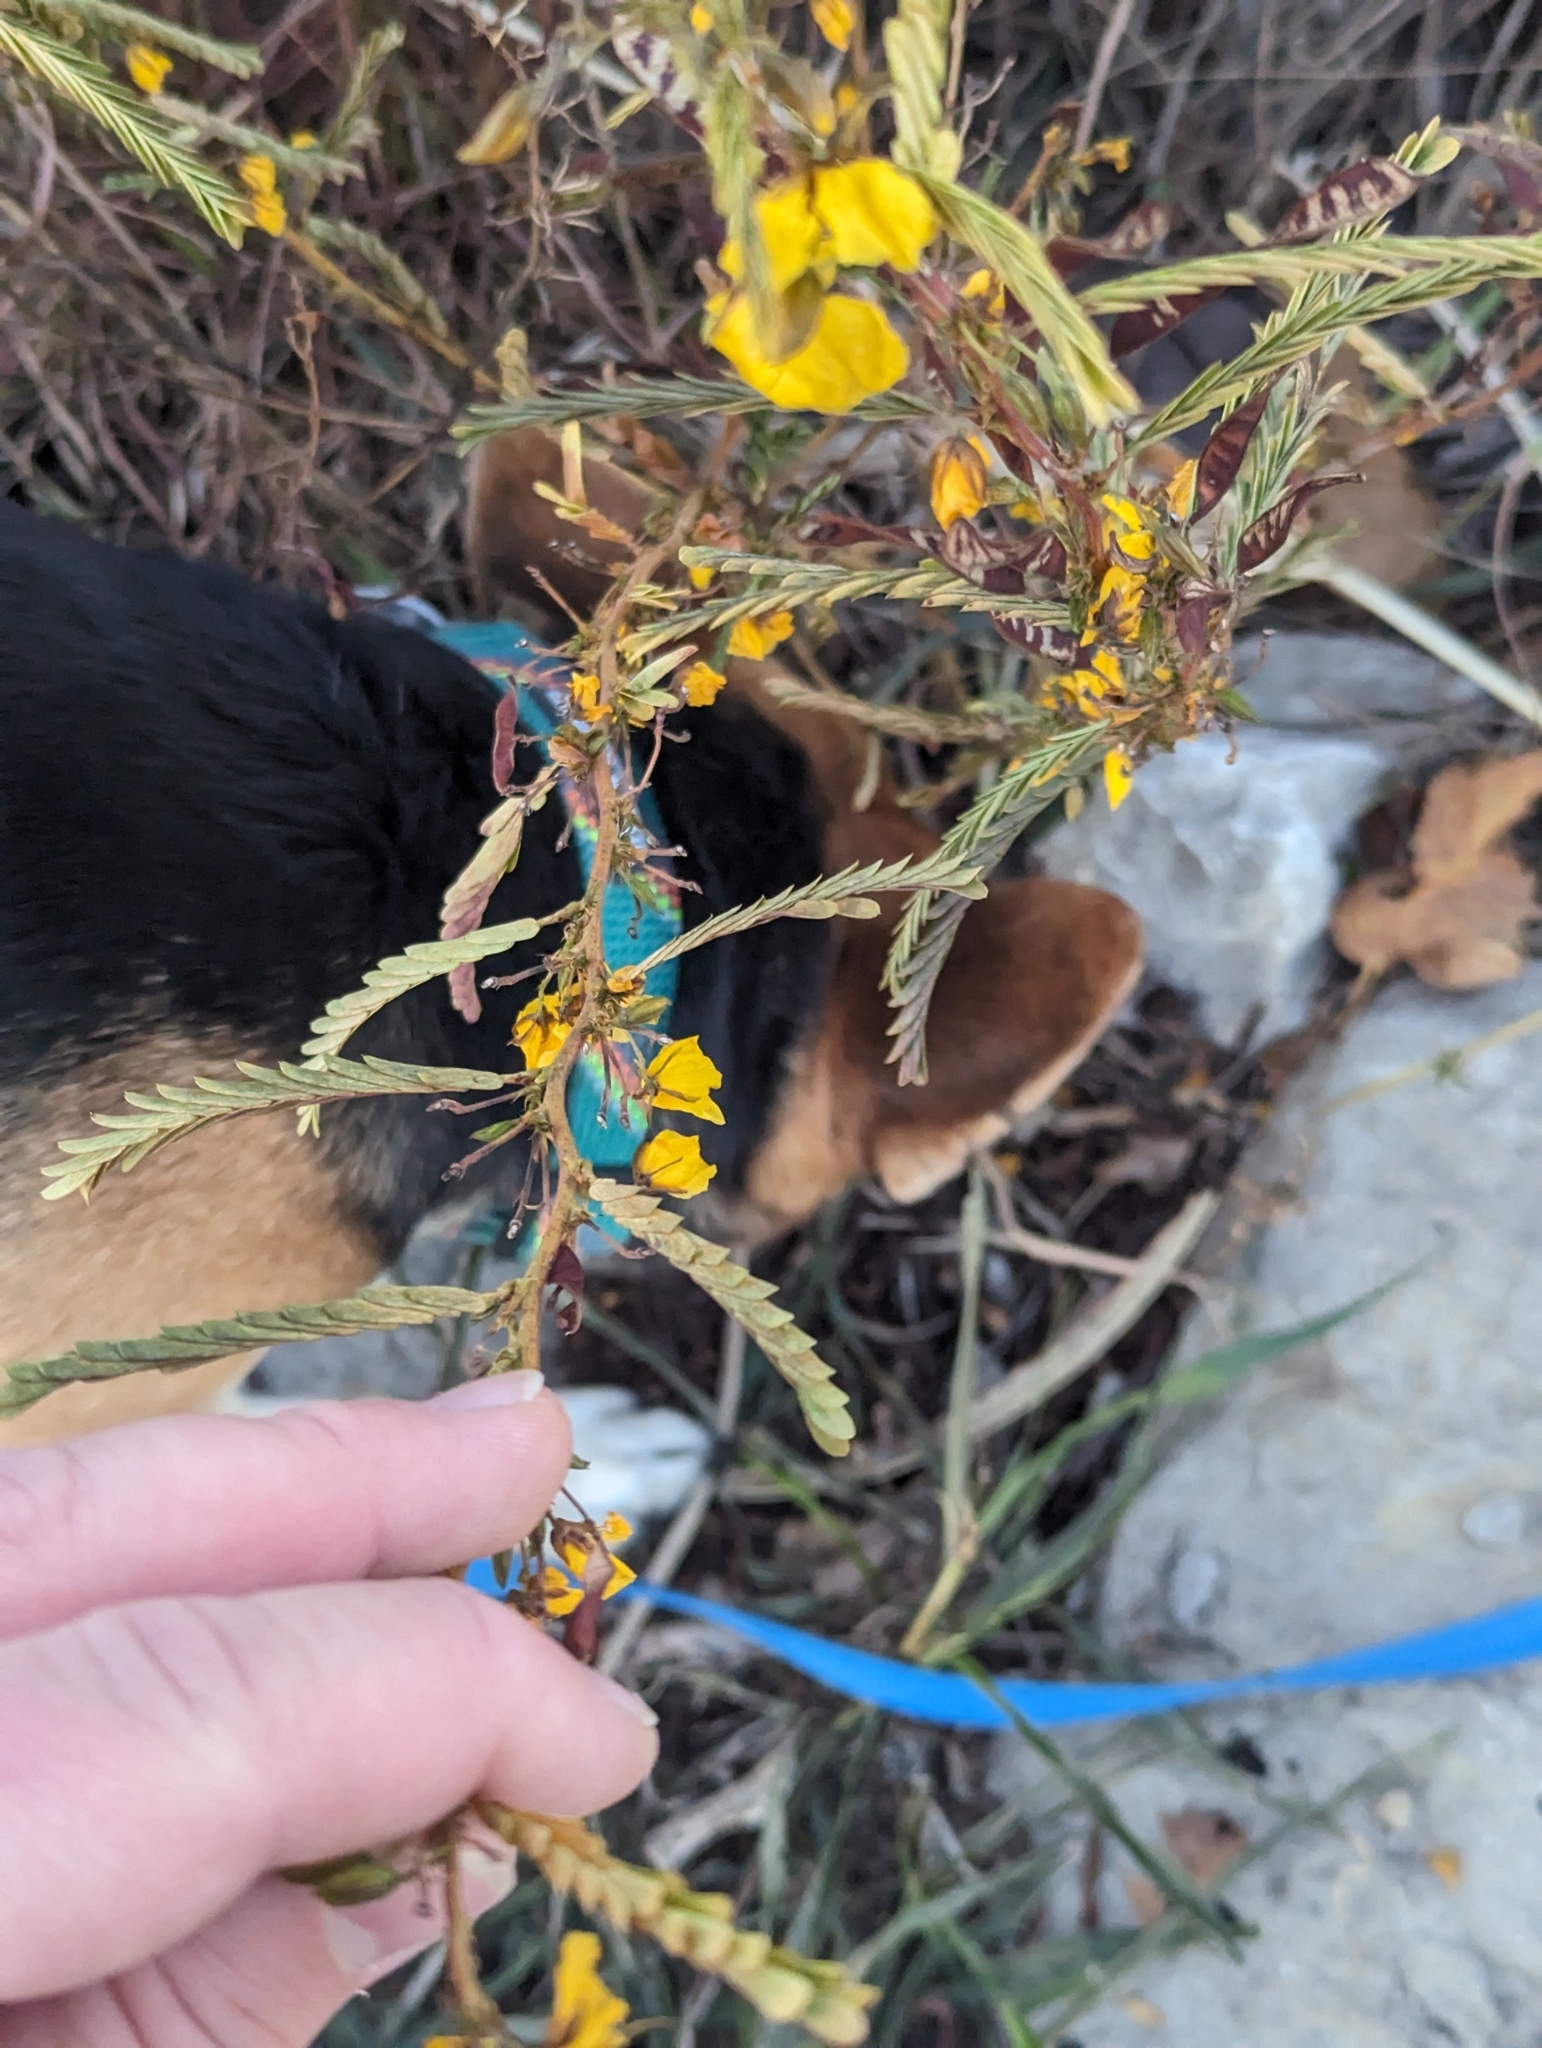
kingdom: Plantae
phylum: Tracheophyta
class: Magnoliopsida
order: Fabales
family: Fabaceae
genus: Chamaecrista
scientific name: Chamaecrista fasciculata
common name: Golden cassia
